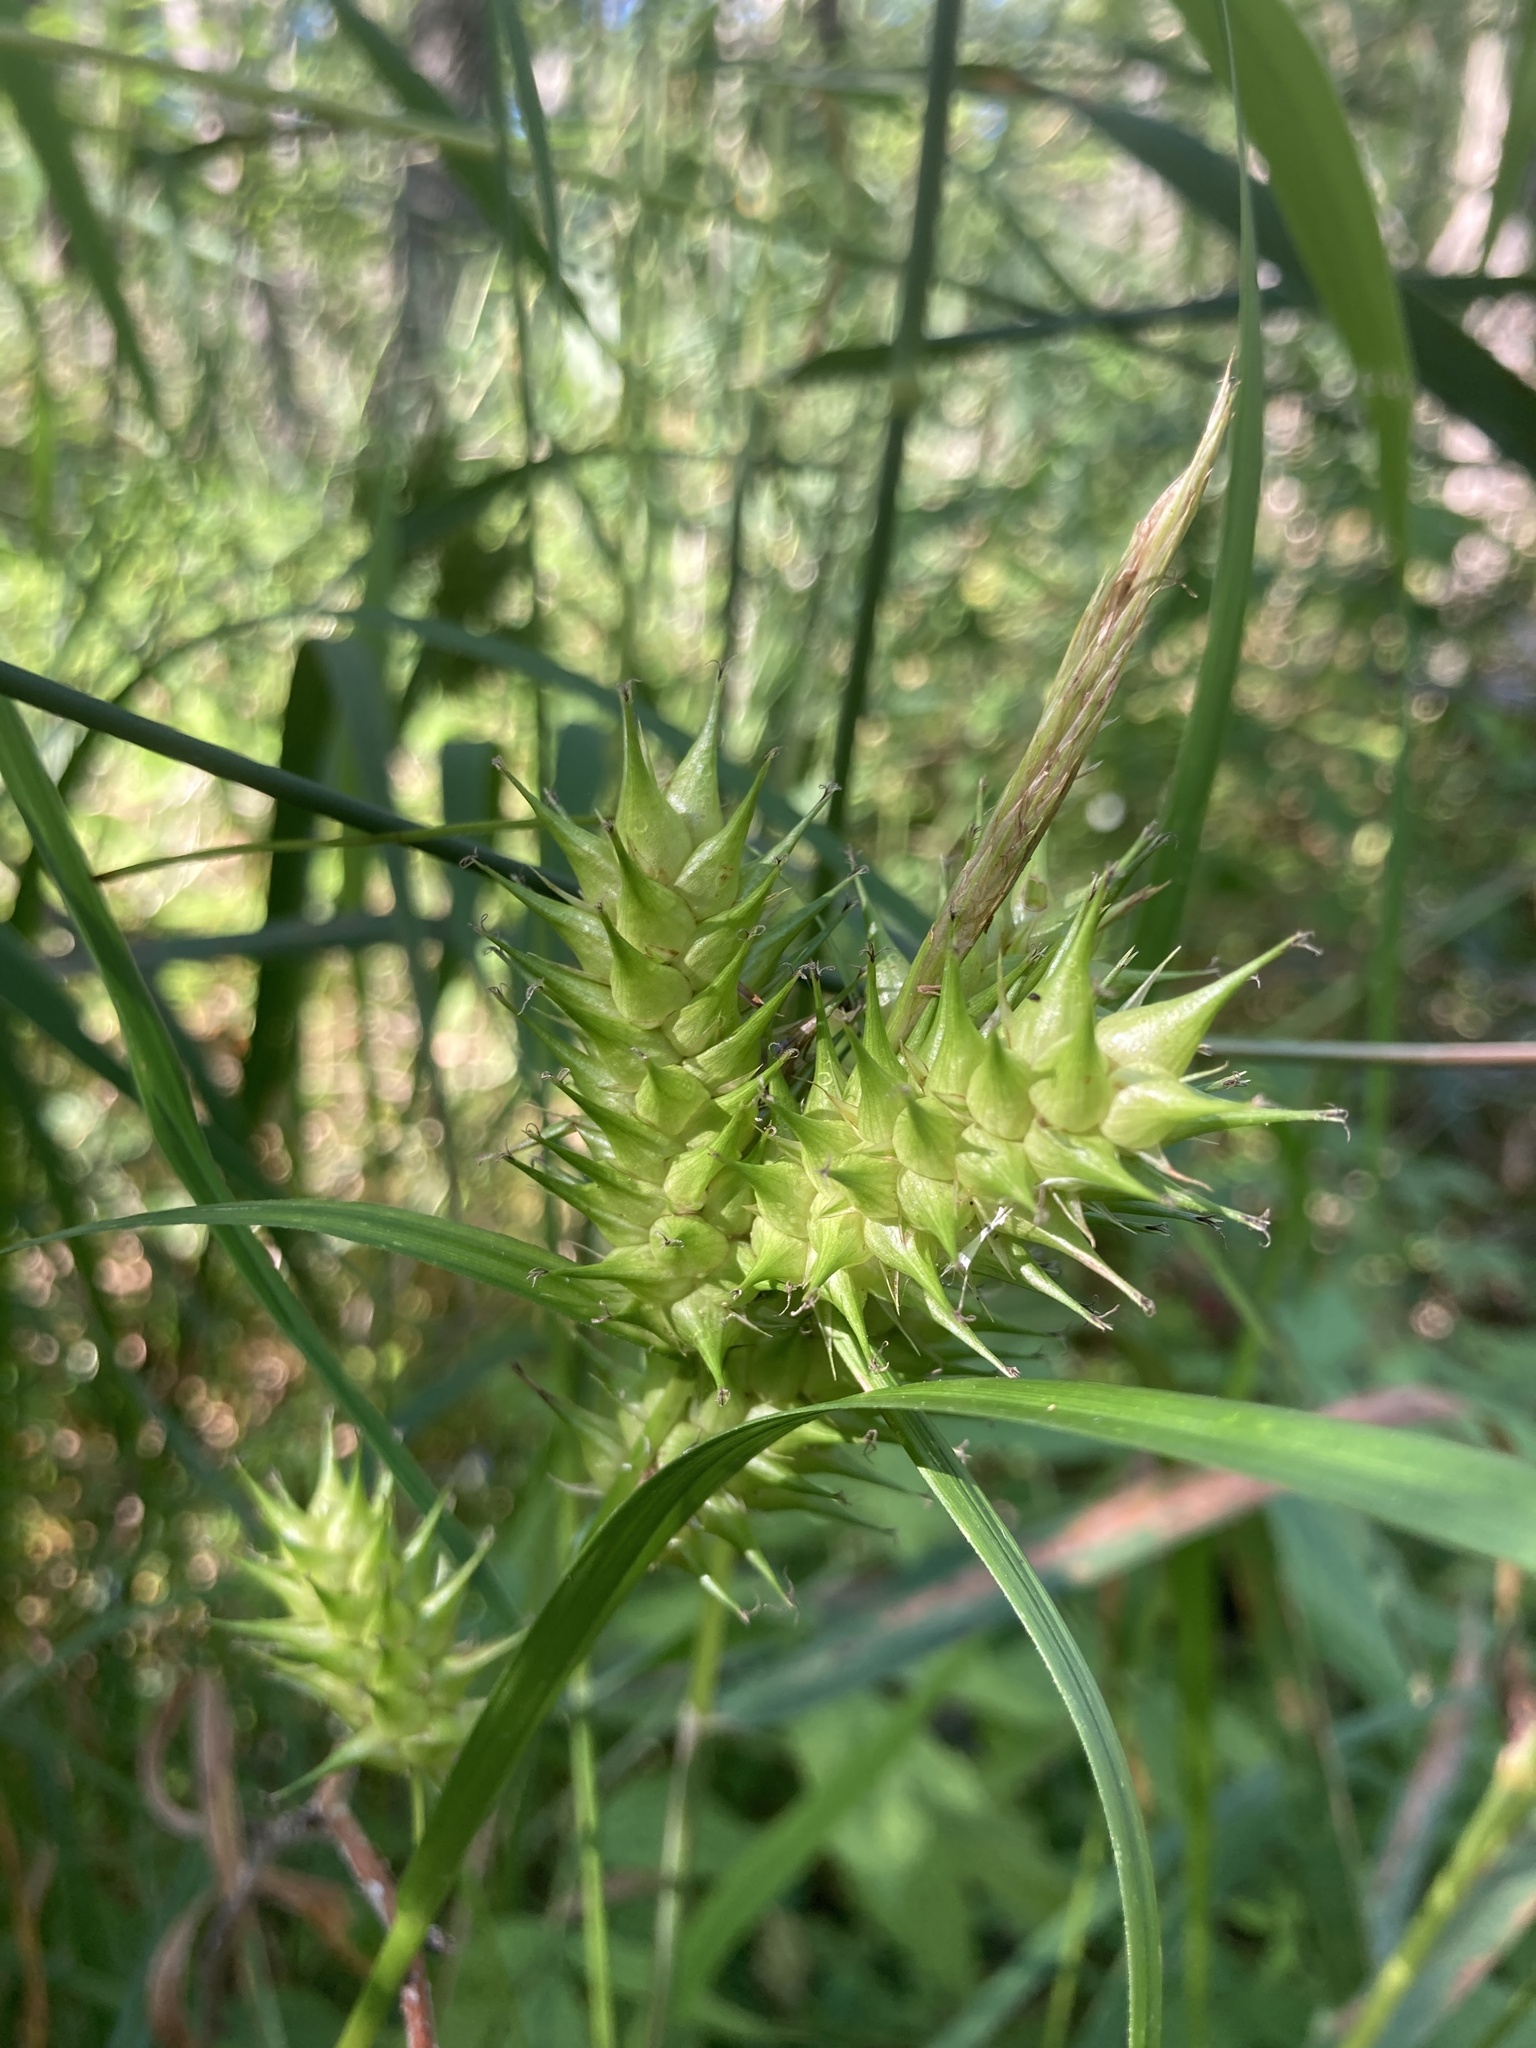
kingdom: Plantae
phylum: Tracheophyta
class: Liliopsida
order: Poales
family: Cyperaceae
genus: Carex
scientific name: Carex lupulina
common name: Hop sedge
